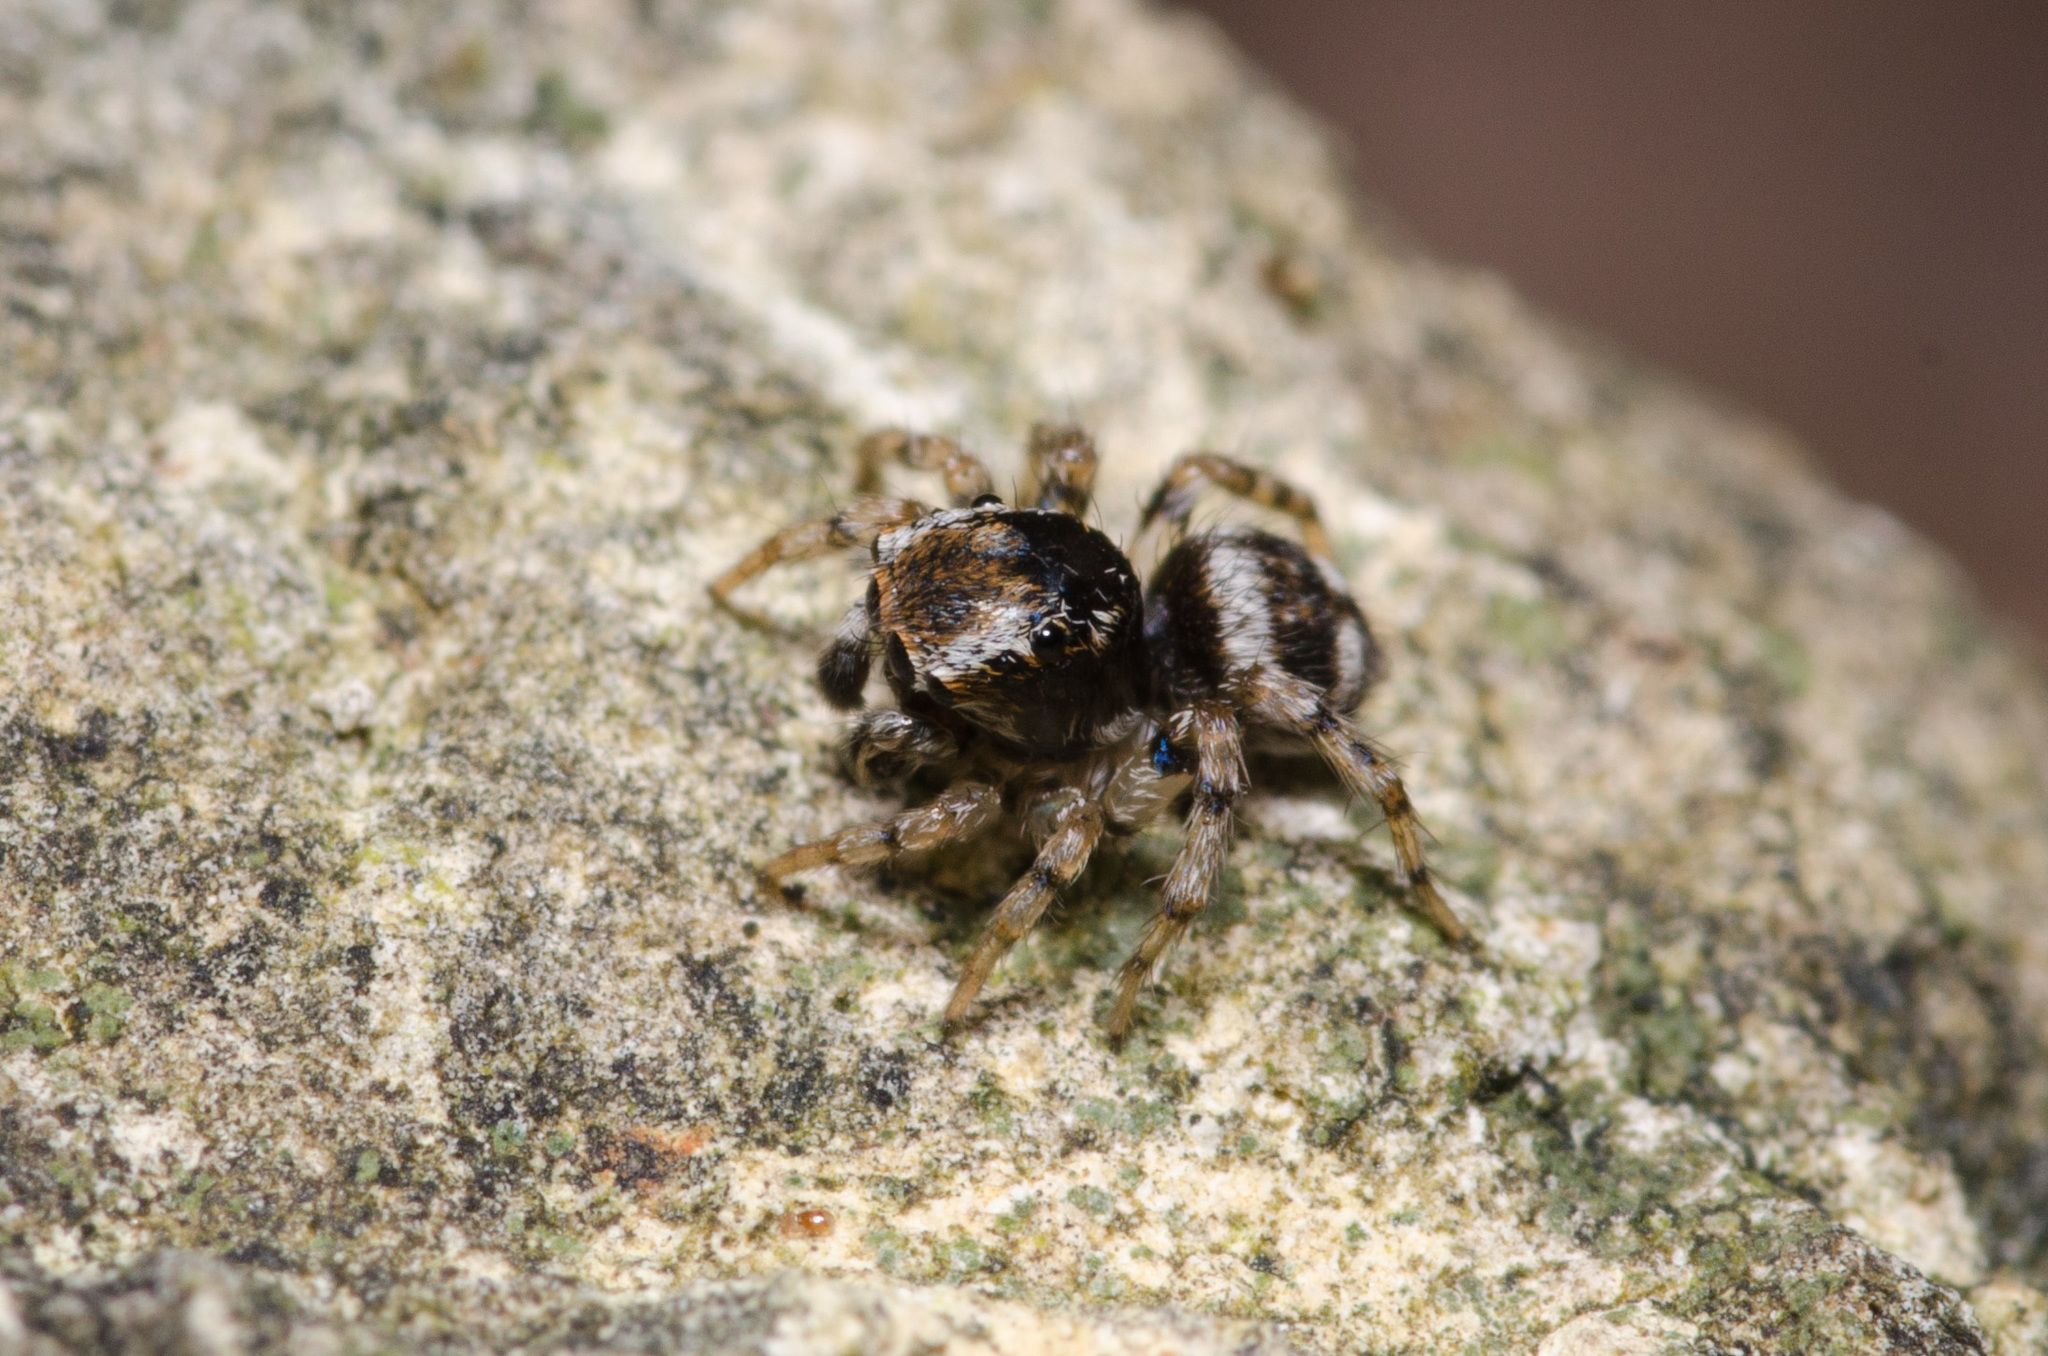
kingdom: Animalia
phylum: Arthropoda
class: Arachnida
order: Araneae
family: Salticidae
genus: Naphrys
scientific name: Naphrys acerba
